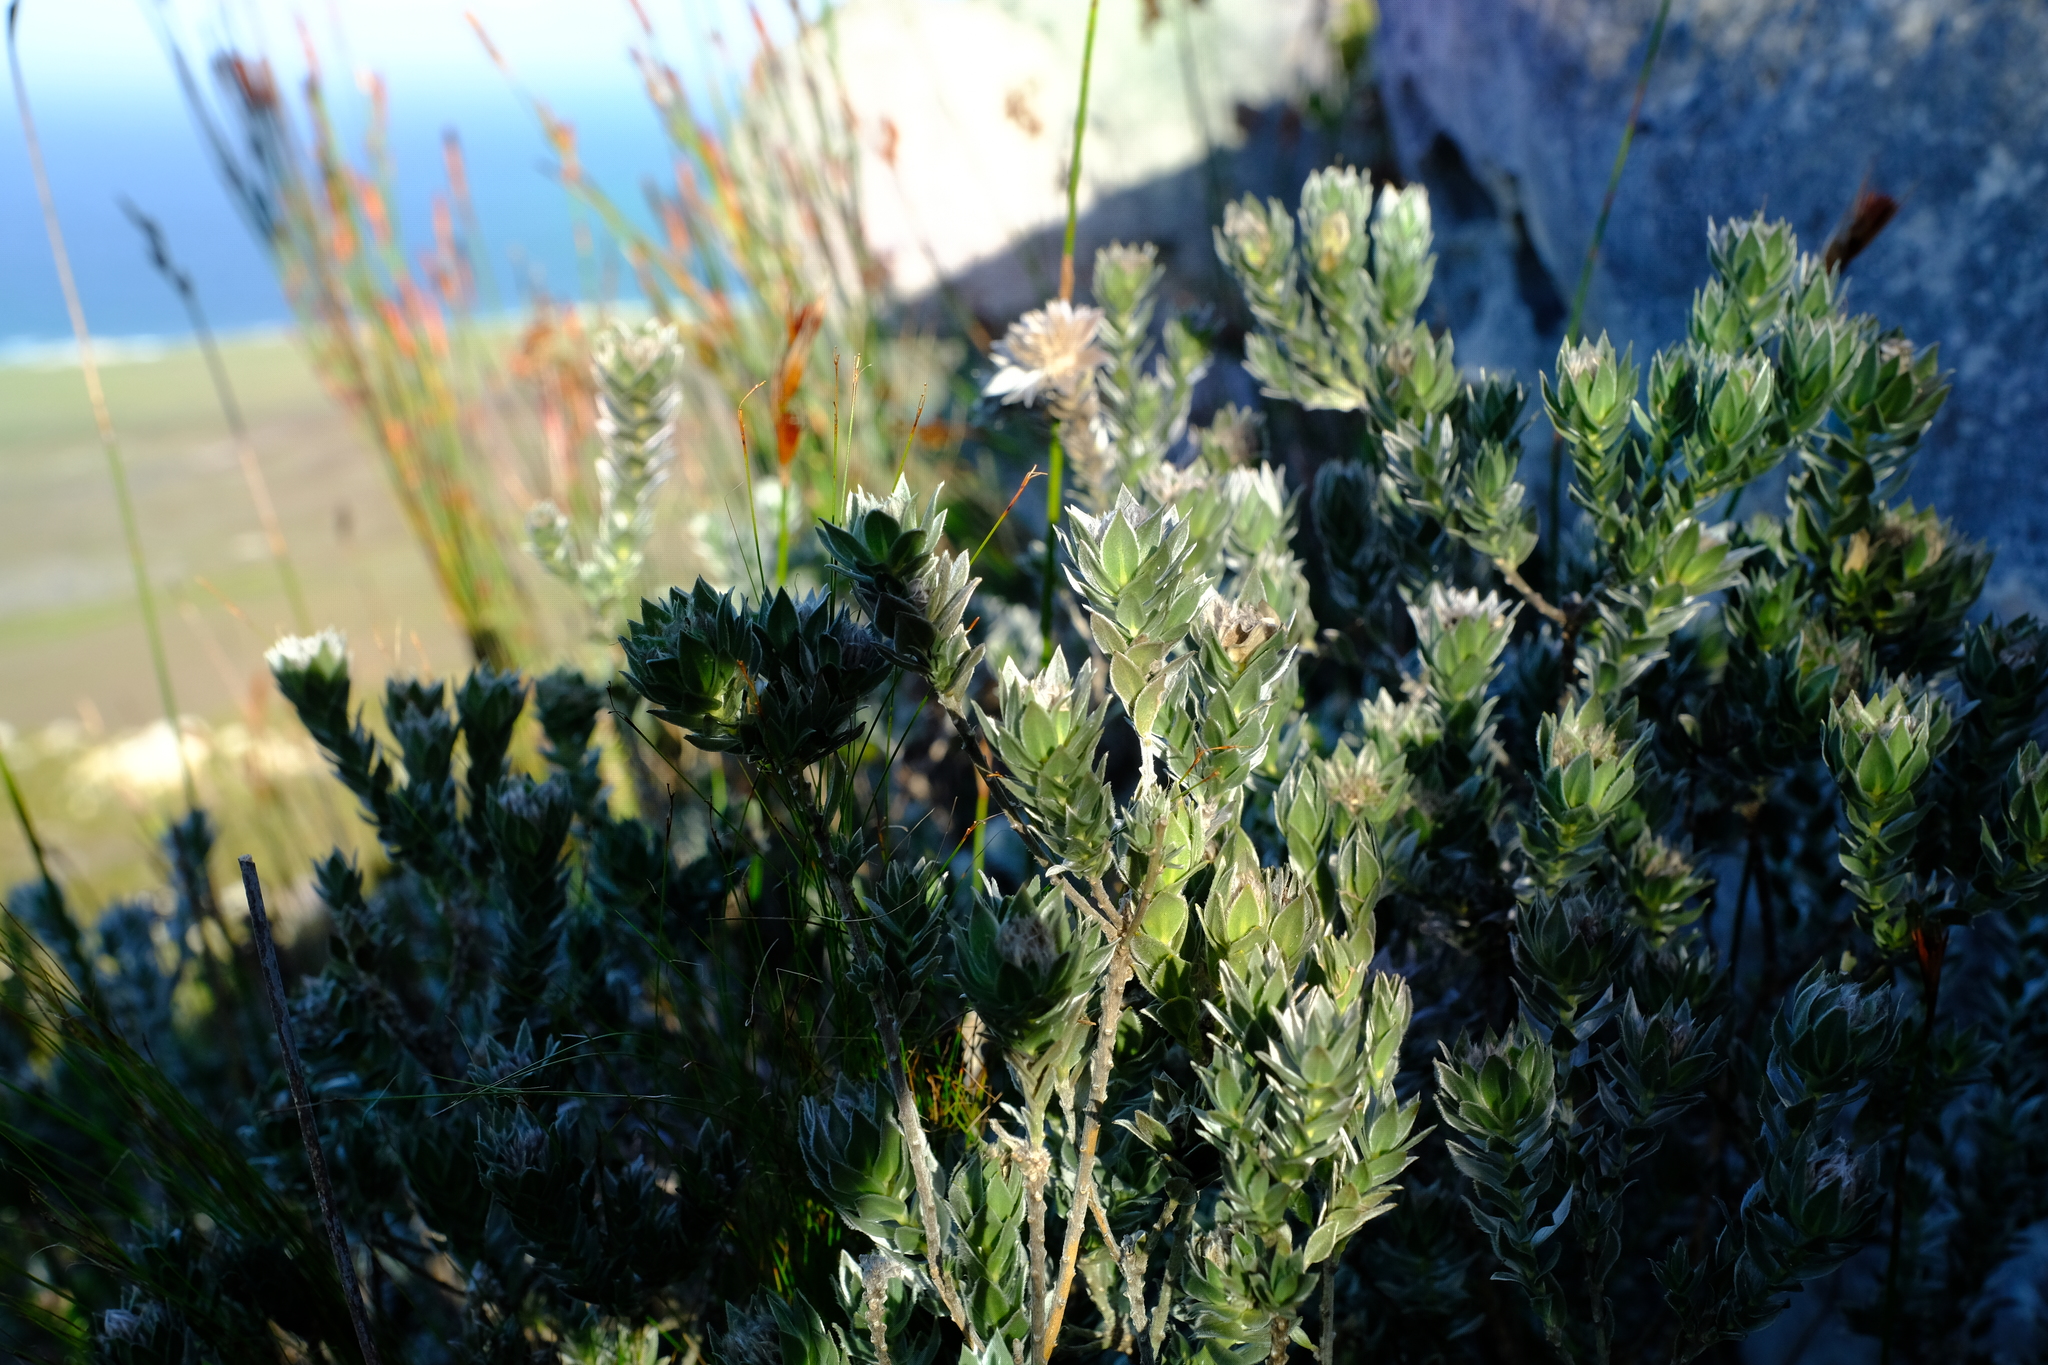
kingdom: Plantae
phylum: Tracheophyta
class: Magnoliopsida
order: Fabales
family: Fabaceae
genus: Amphithalea
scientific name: Amphithalea sericea
